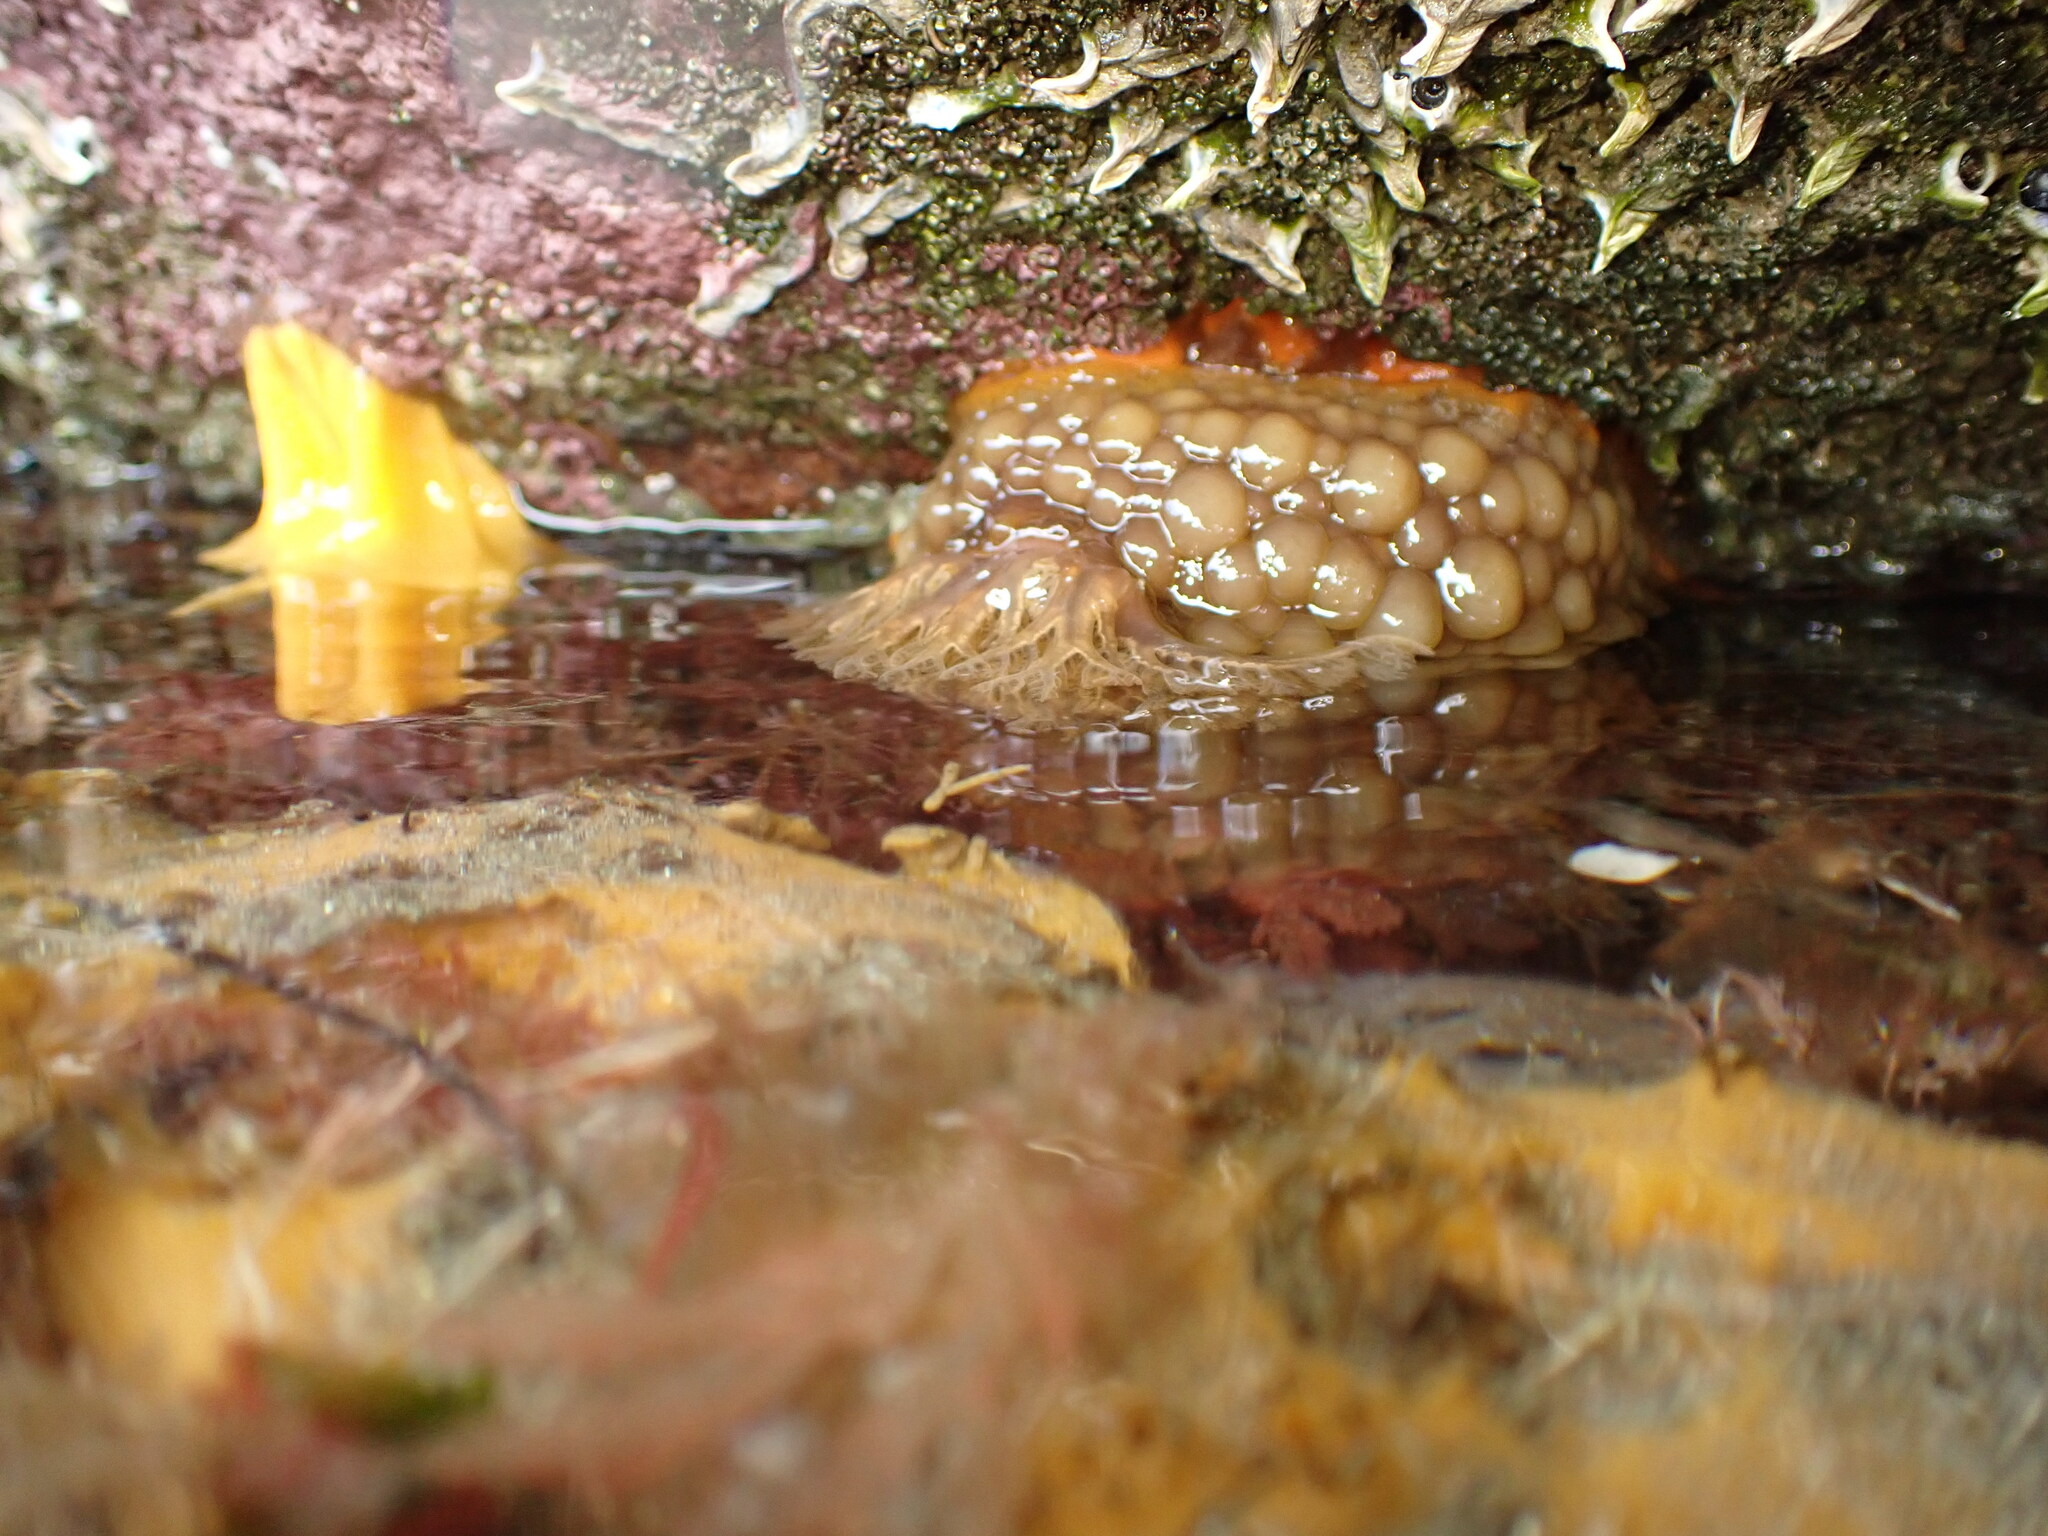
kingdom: Animalia
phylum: Mollusca
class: Gastropoda
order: Nudibranchia
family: Dorididae
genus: Doris
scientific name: Doris wellingtonensis
